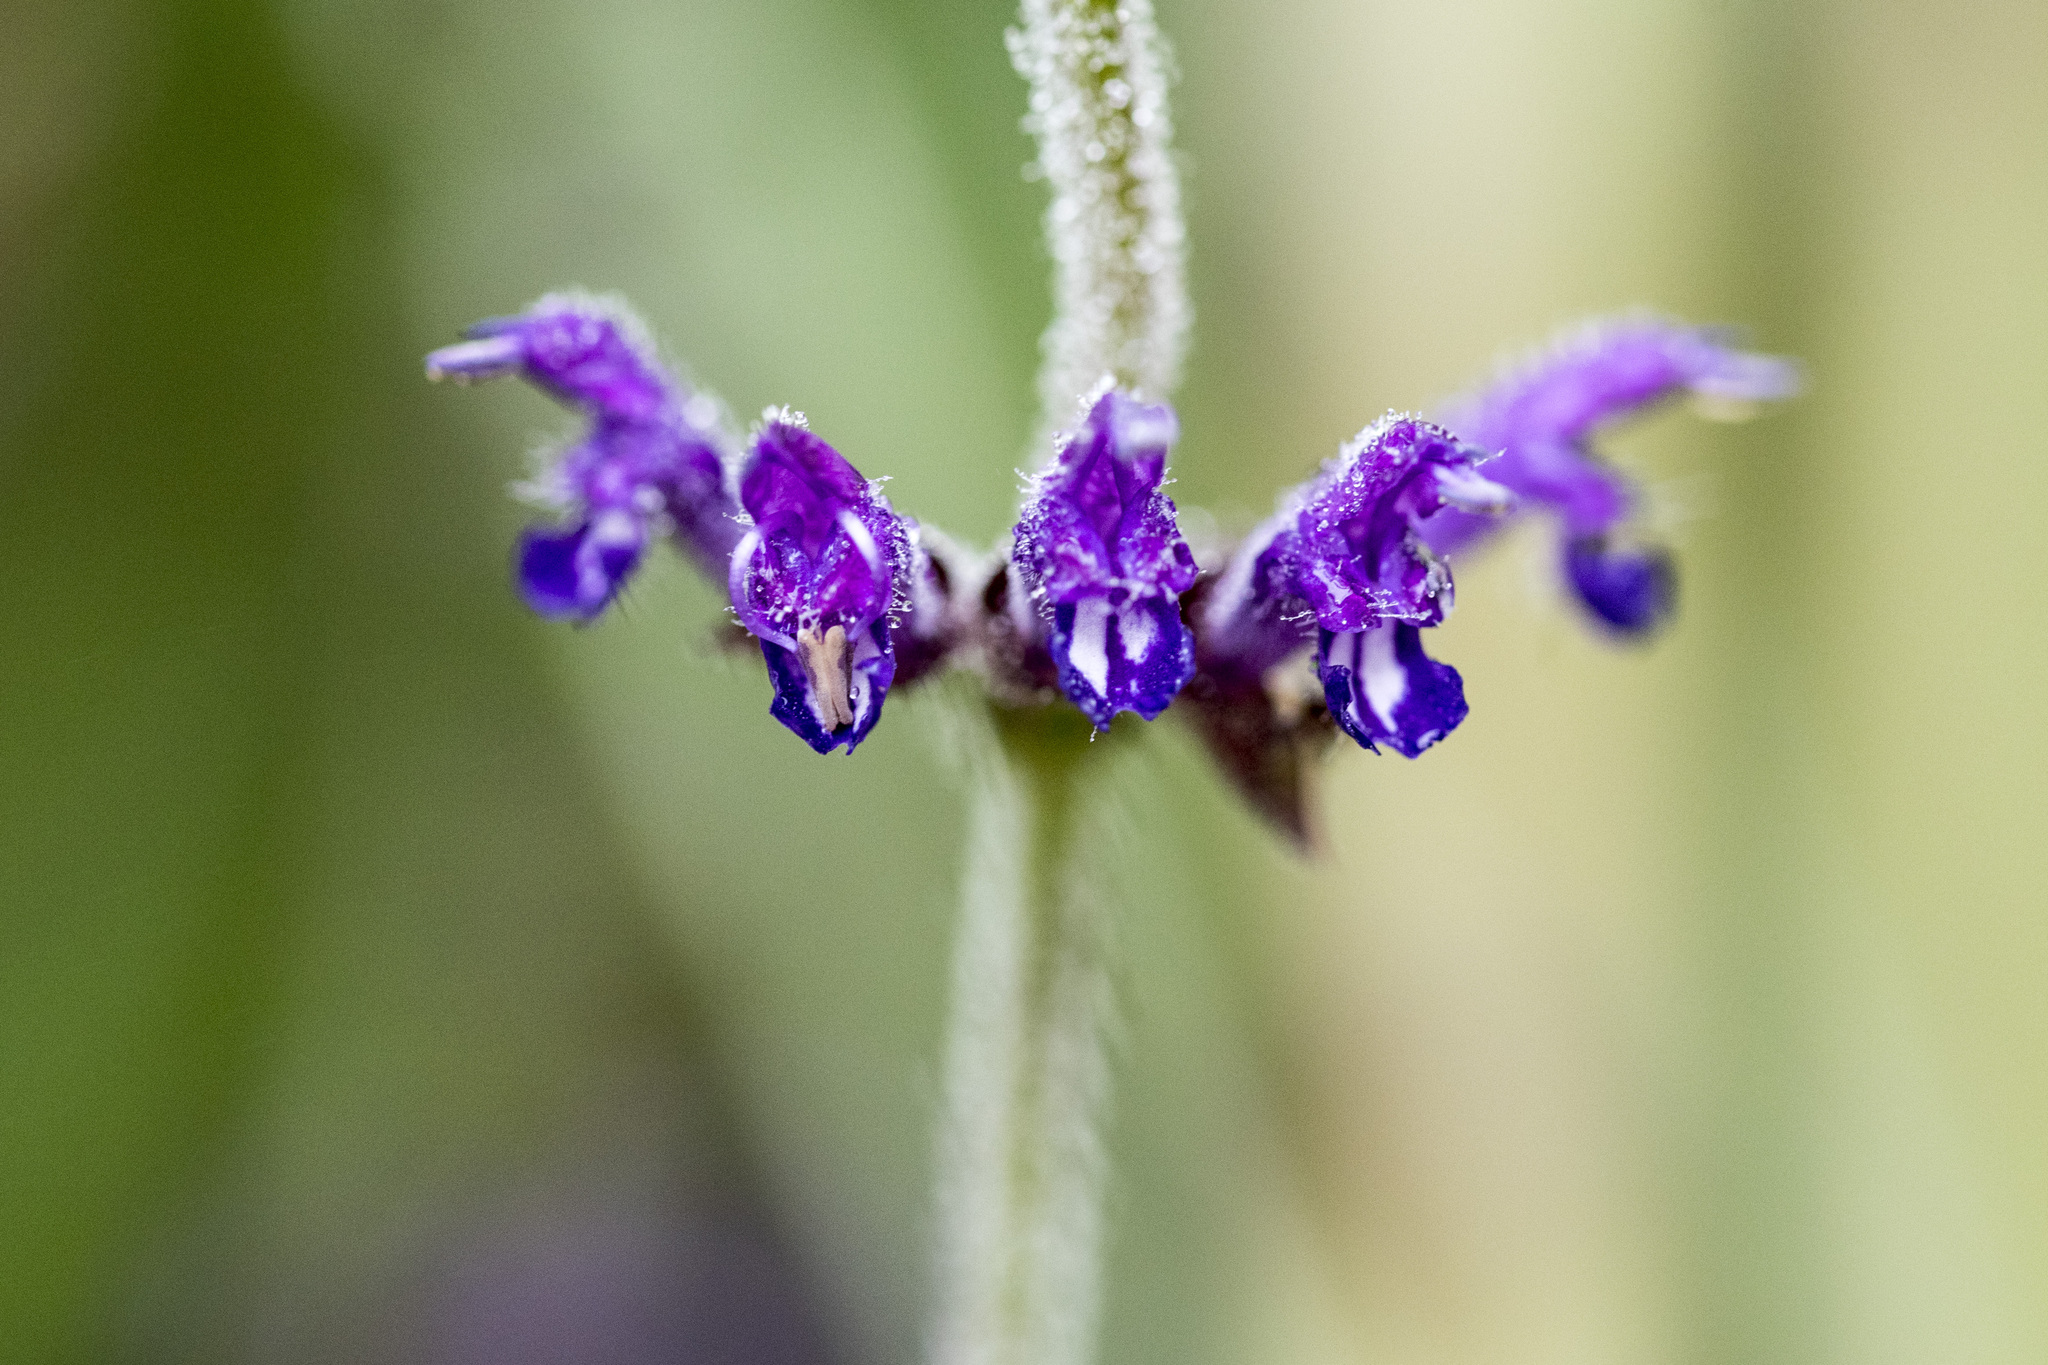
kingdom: Plantae
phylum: Tracheophyta
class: Magnoliopsida
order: Lamiales
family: Lamiaceae
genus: Salvia
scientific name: Salvia
